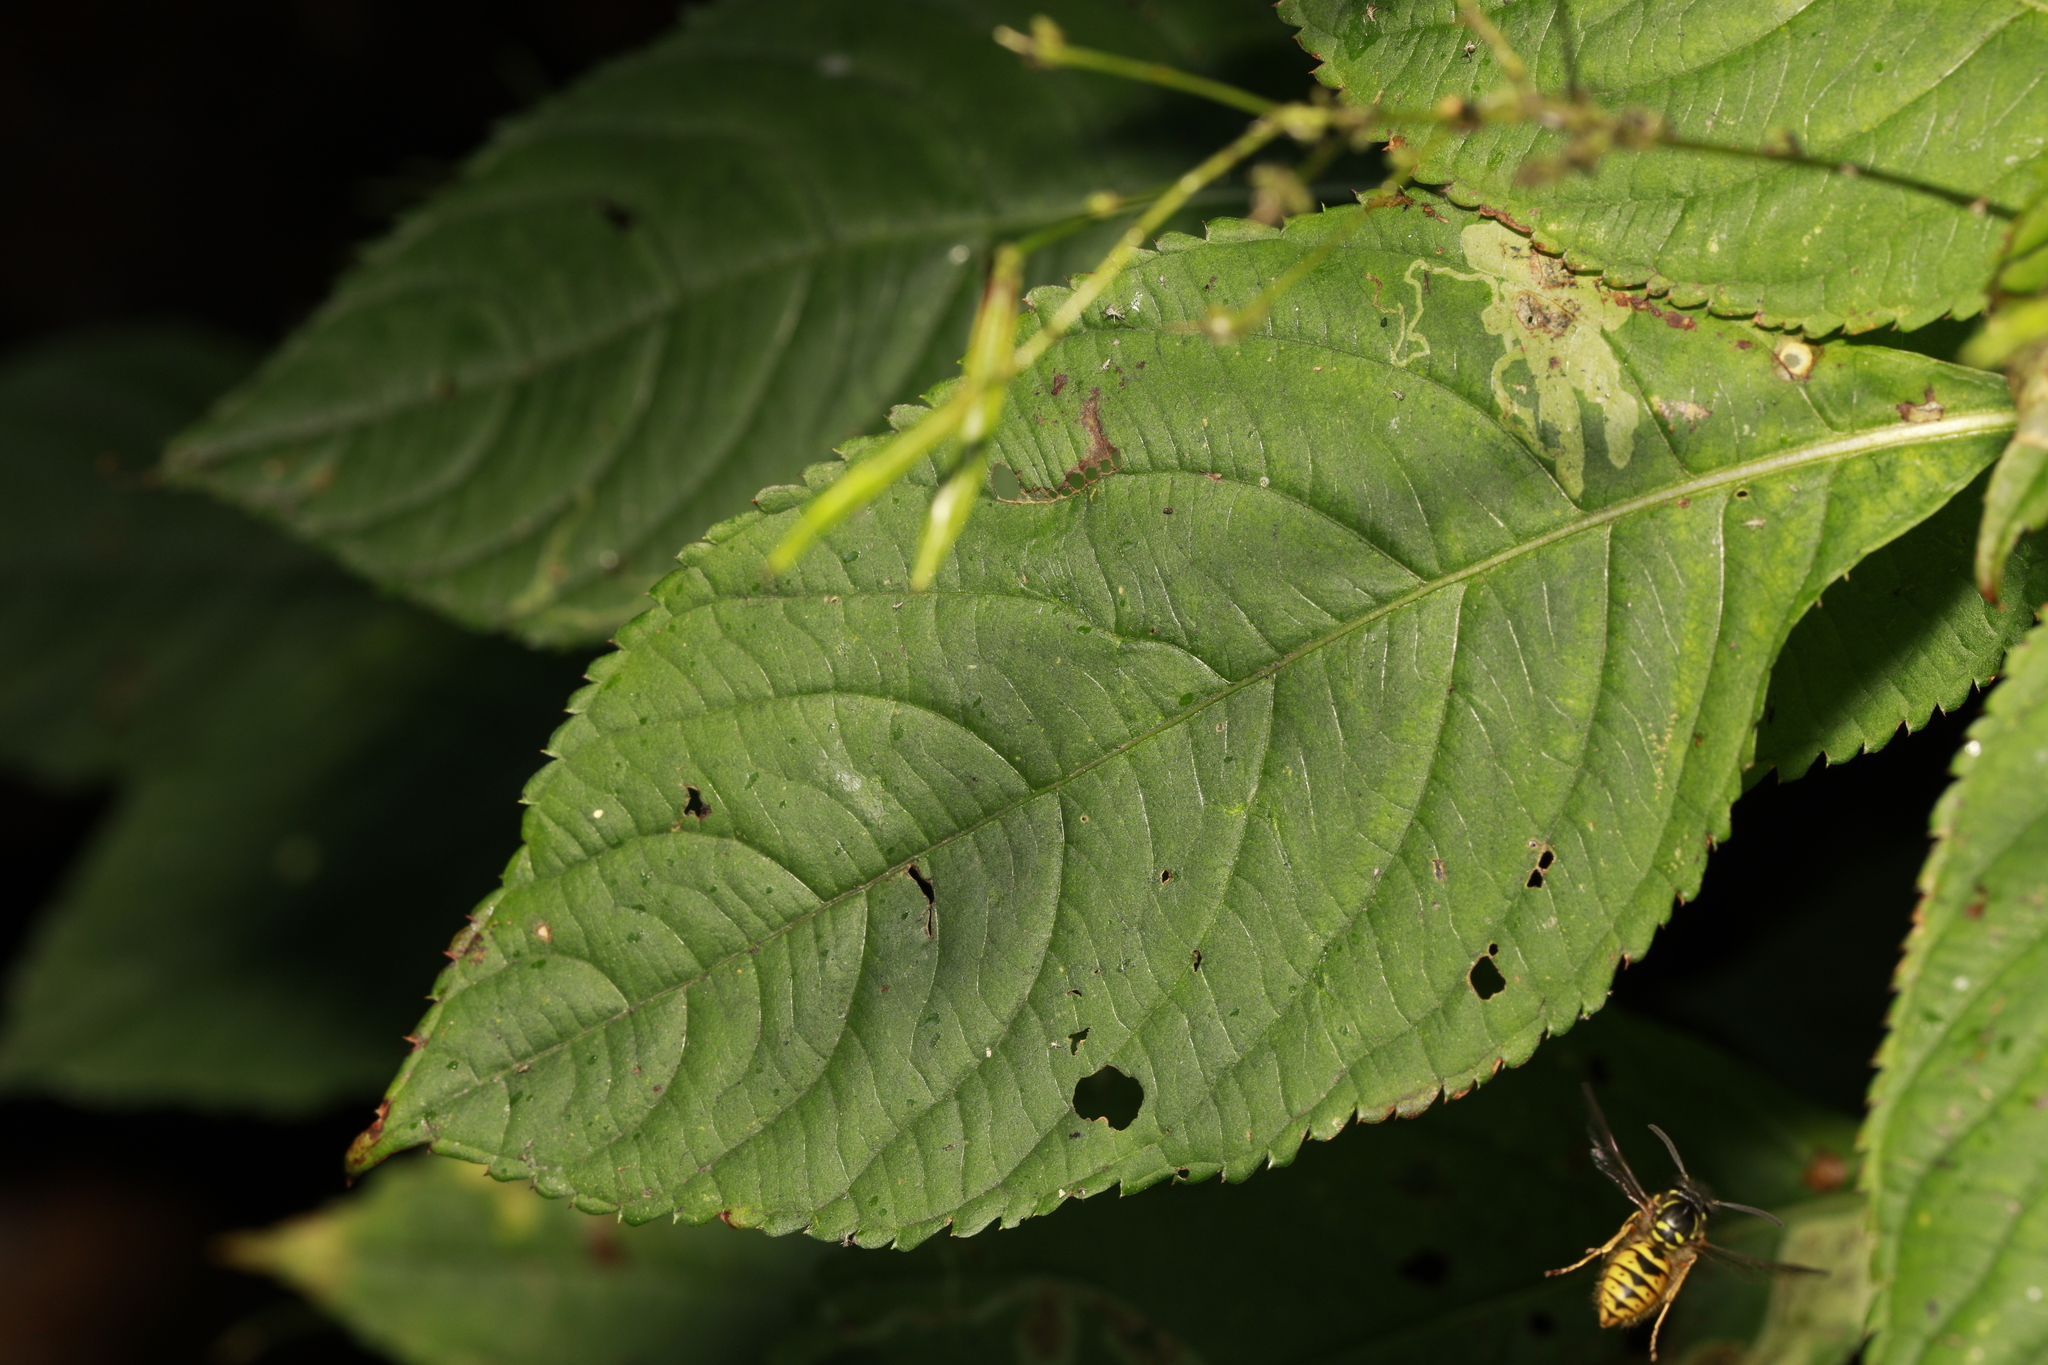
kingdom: Animalia
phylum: Arthropoda
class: Insecta
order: Diptera
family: Agromyzidae
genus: Phytoliriomyza
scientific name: Phytoliriomyza melampyga
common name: Jewelweed leaf-miner fly
